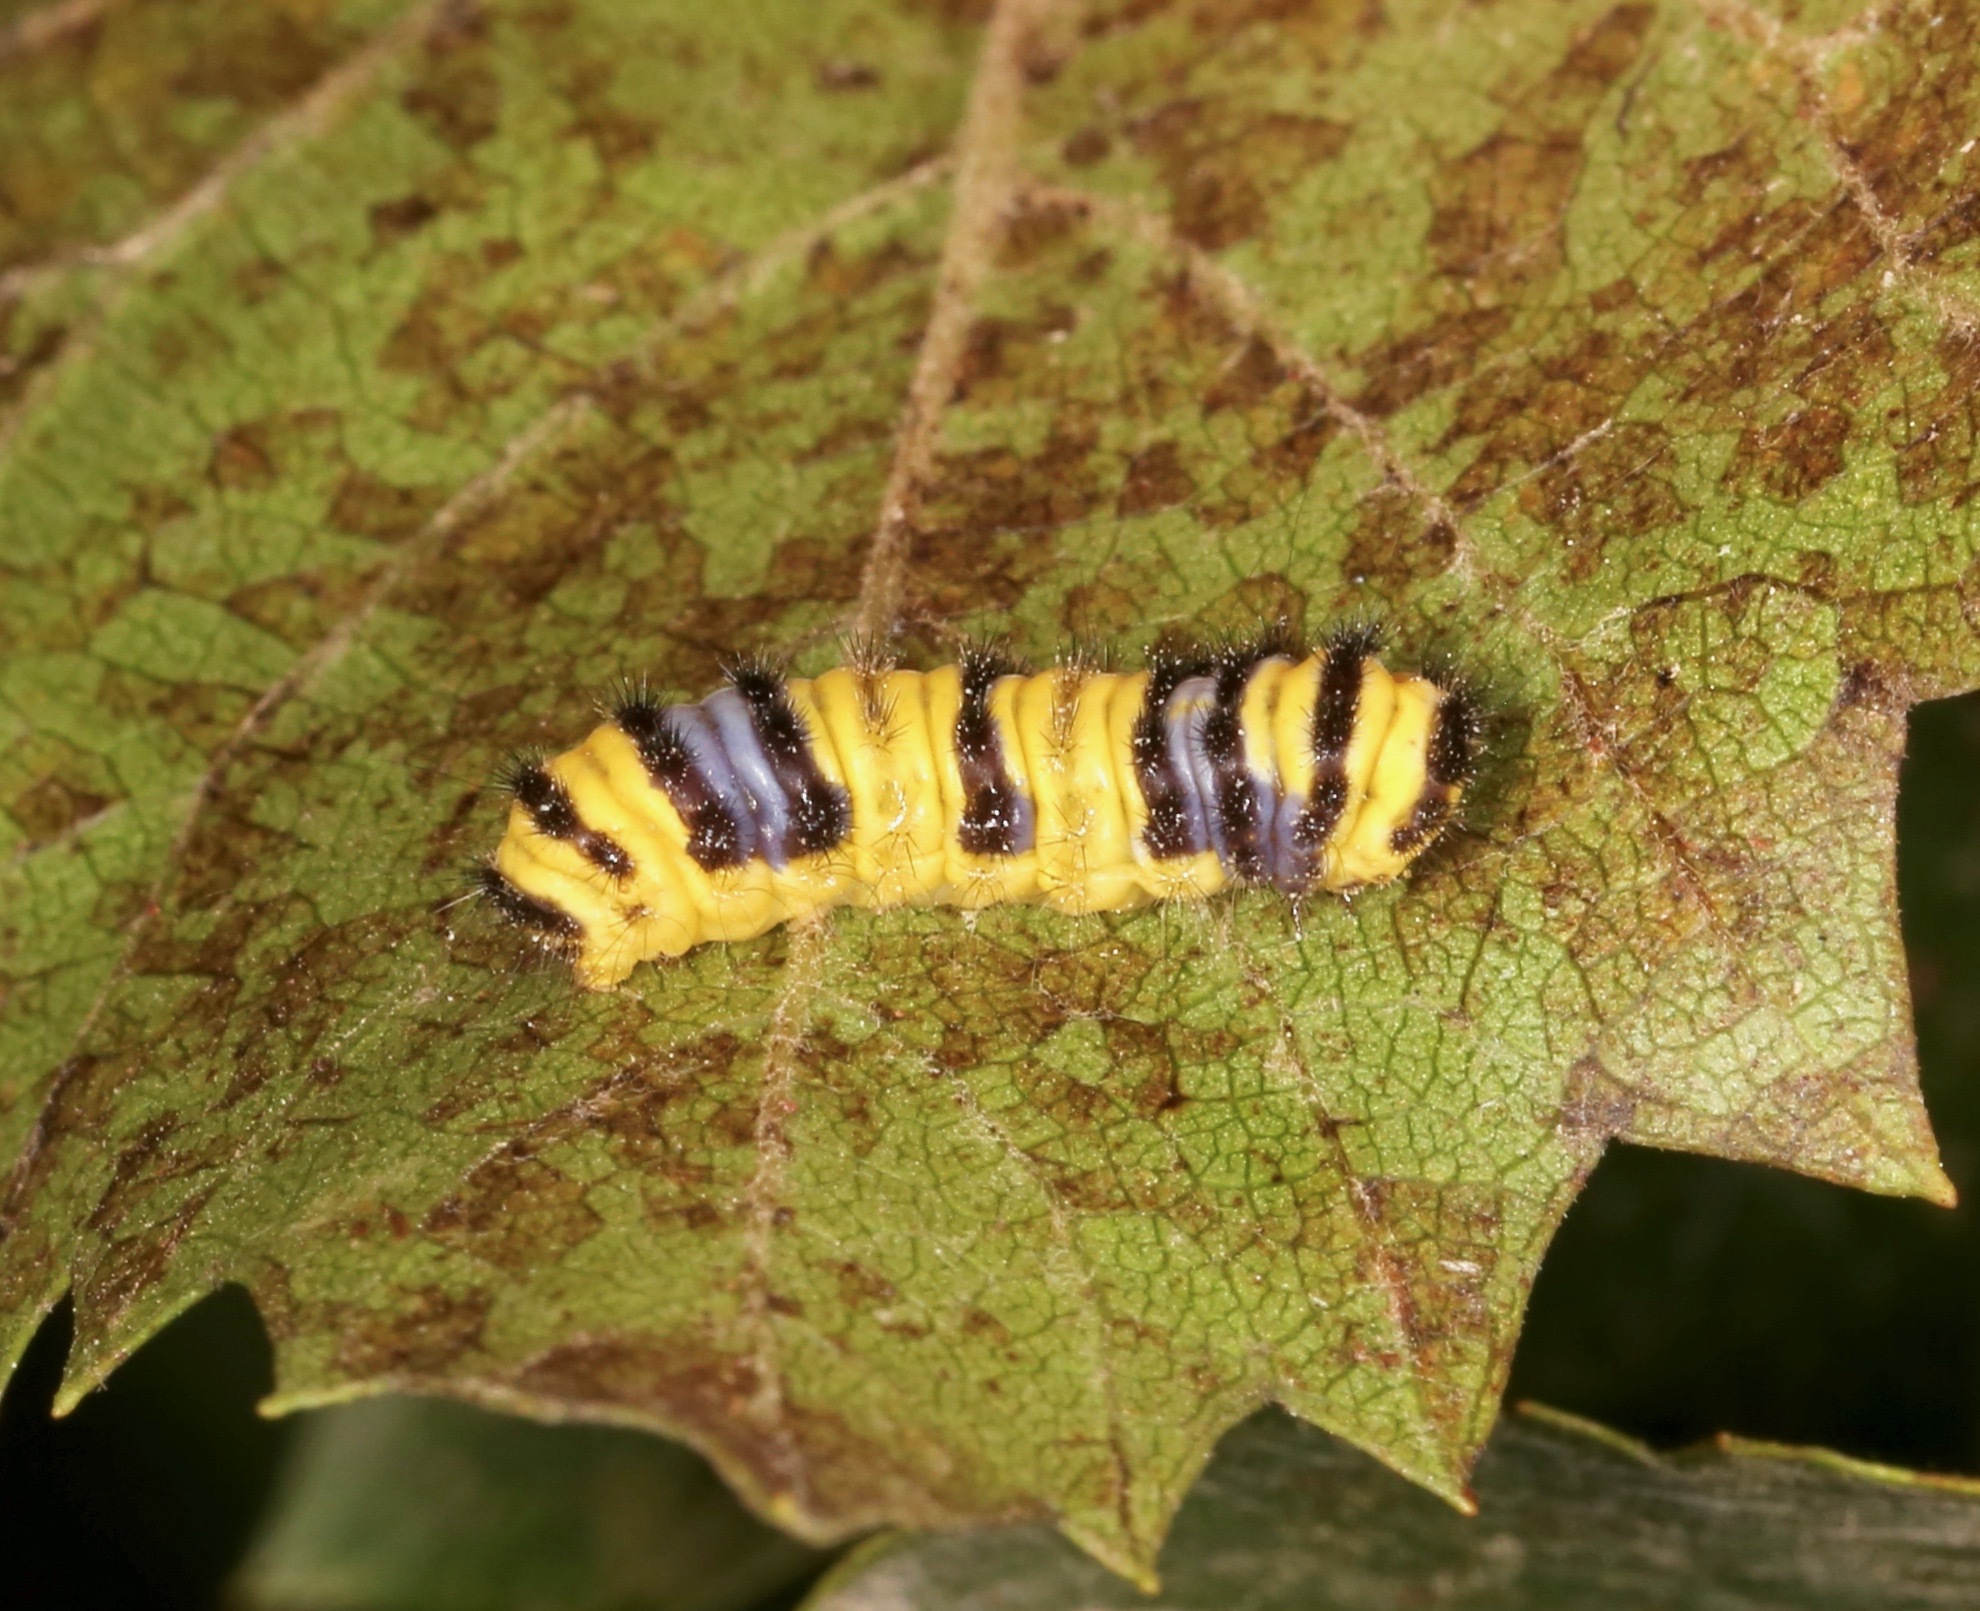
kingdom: Animalia
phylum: Arthropoda
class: Insecta
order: Lepidoptera
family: Zygaenidae
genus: Harrisina
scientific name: Harrisina metallica
